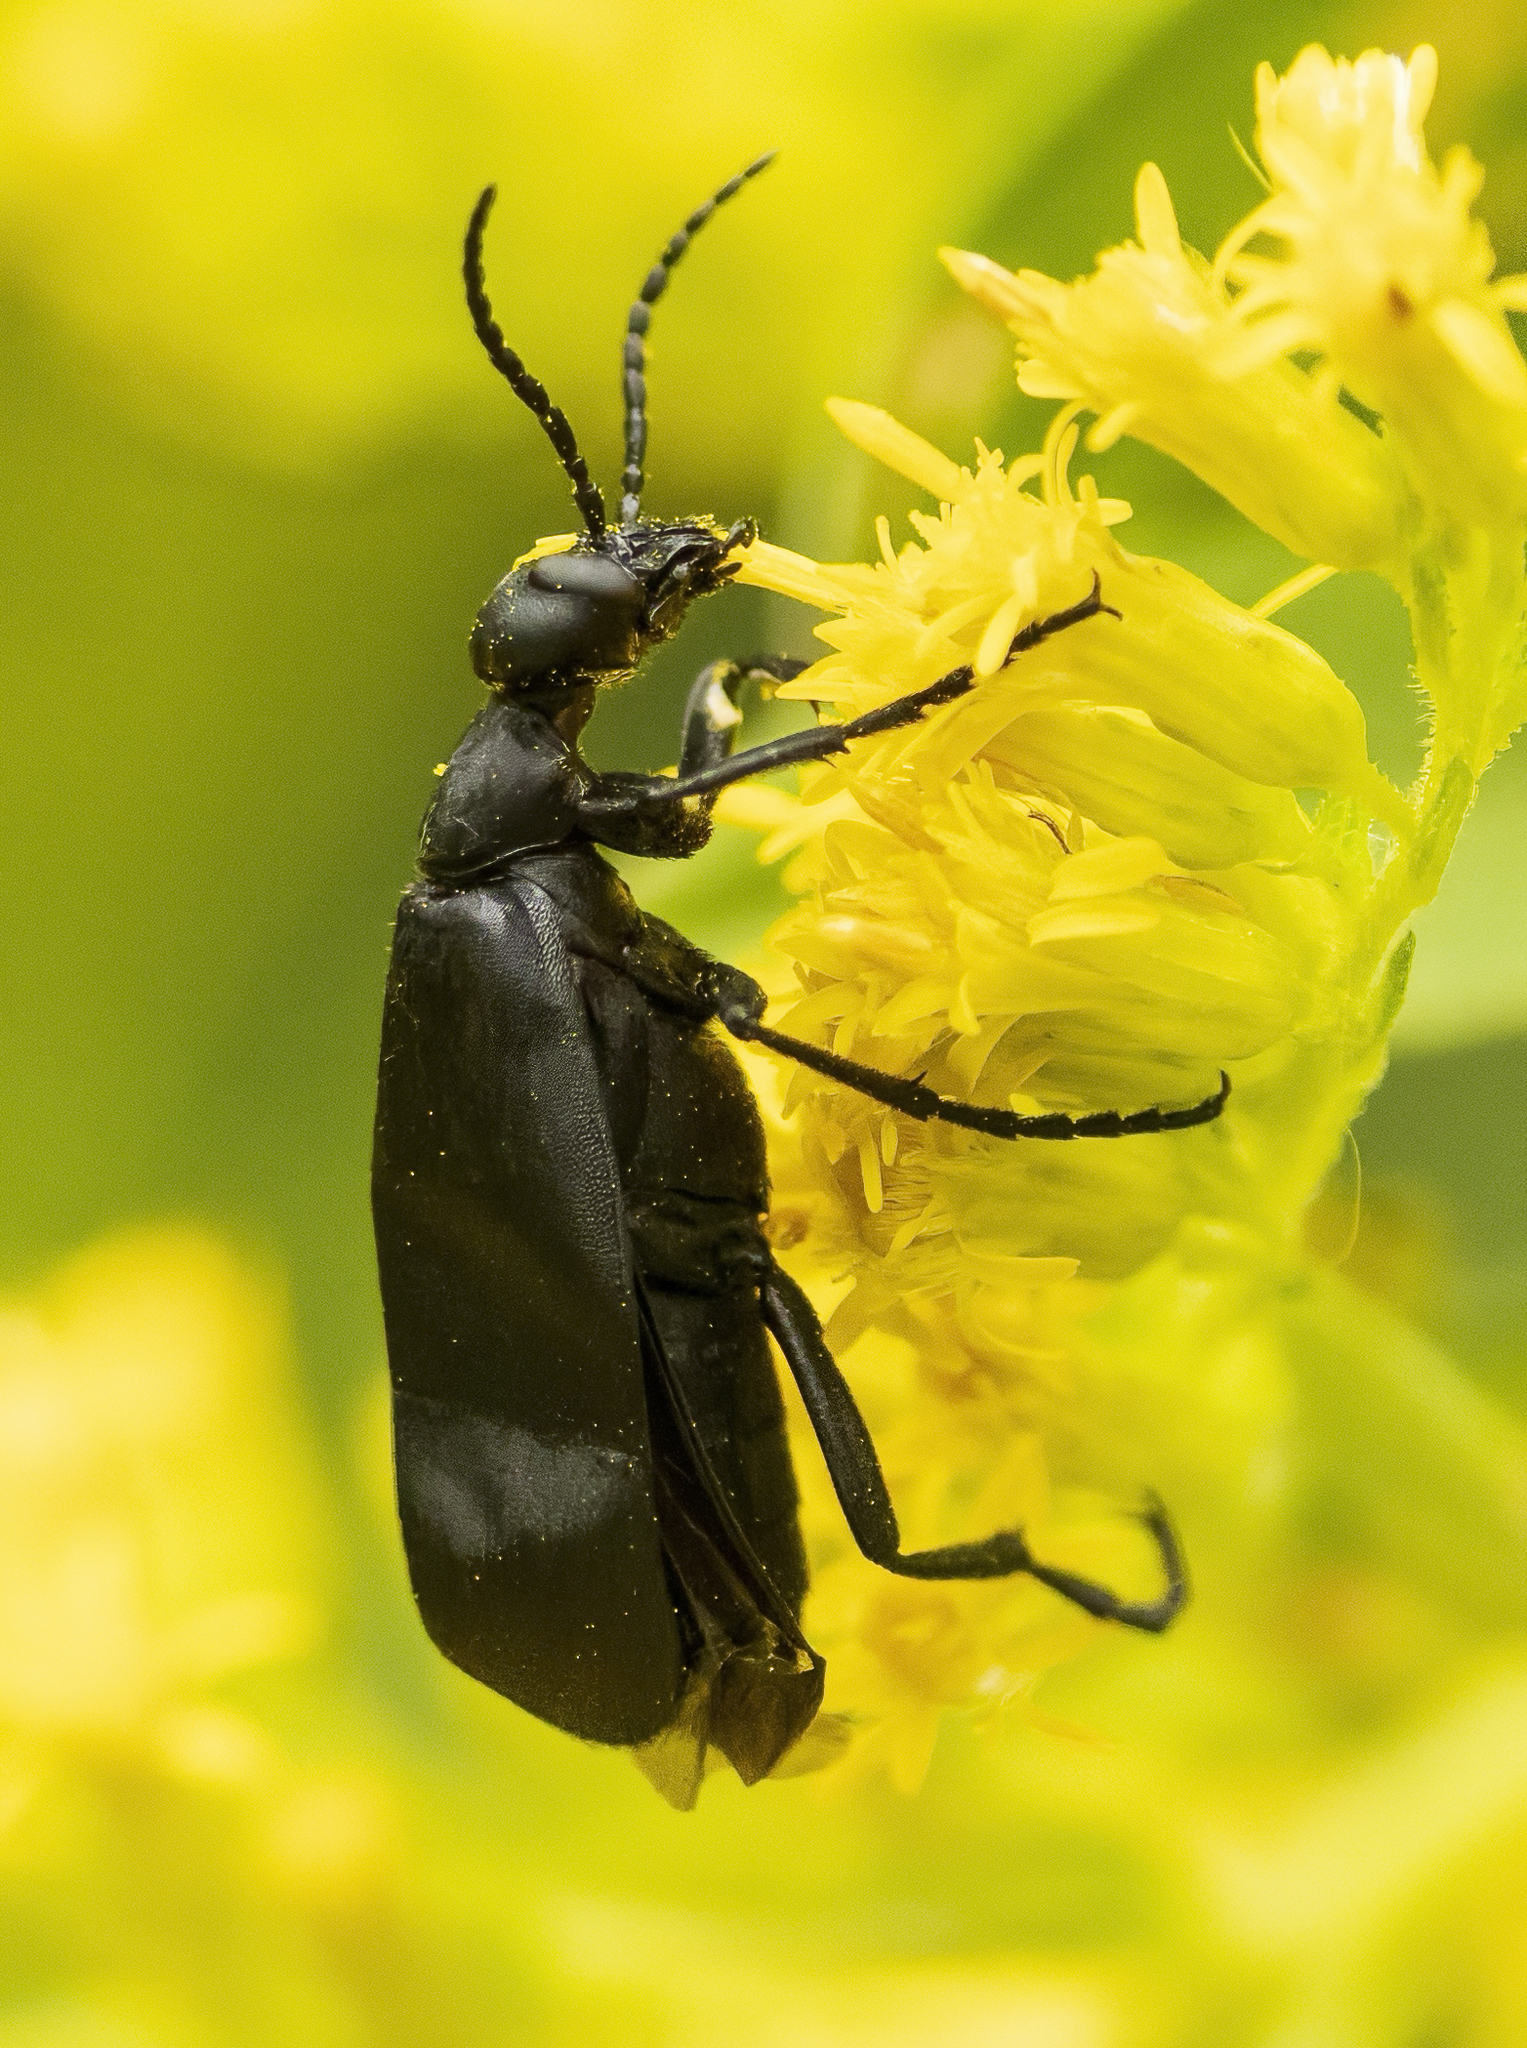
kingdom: Animalia
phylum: Arthropoda
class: Insecta
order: Coleoptera
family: Meloidae
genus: Epicauta
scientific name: Epicauta pensylvanica
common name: Black blister beetle
